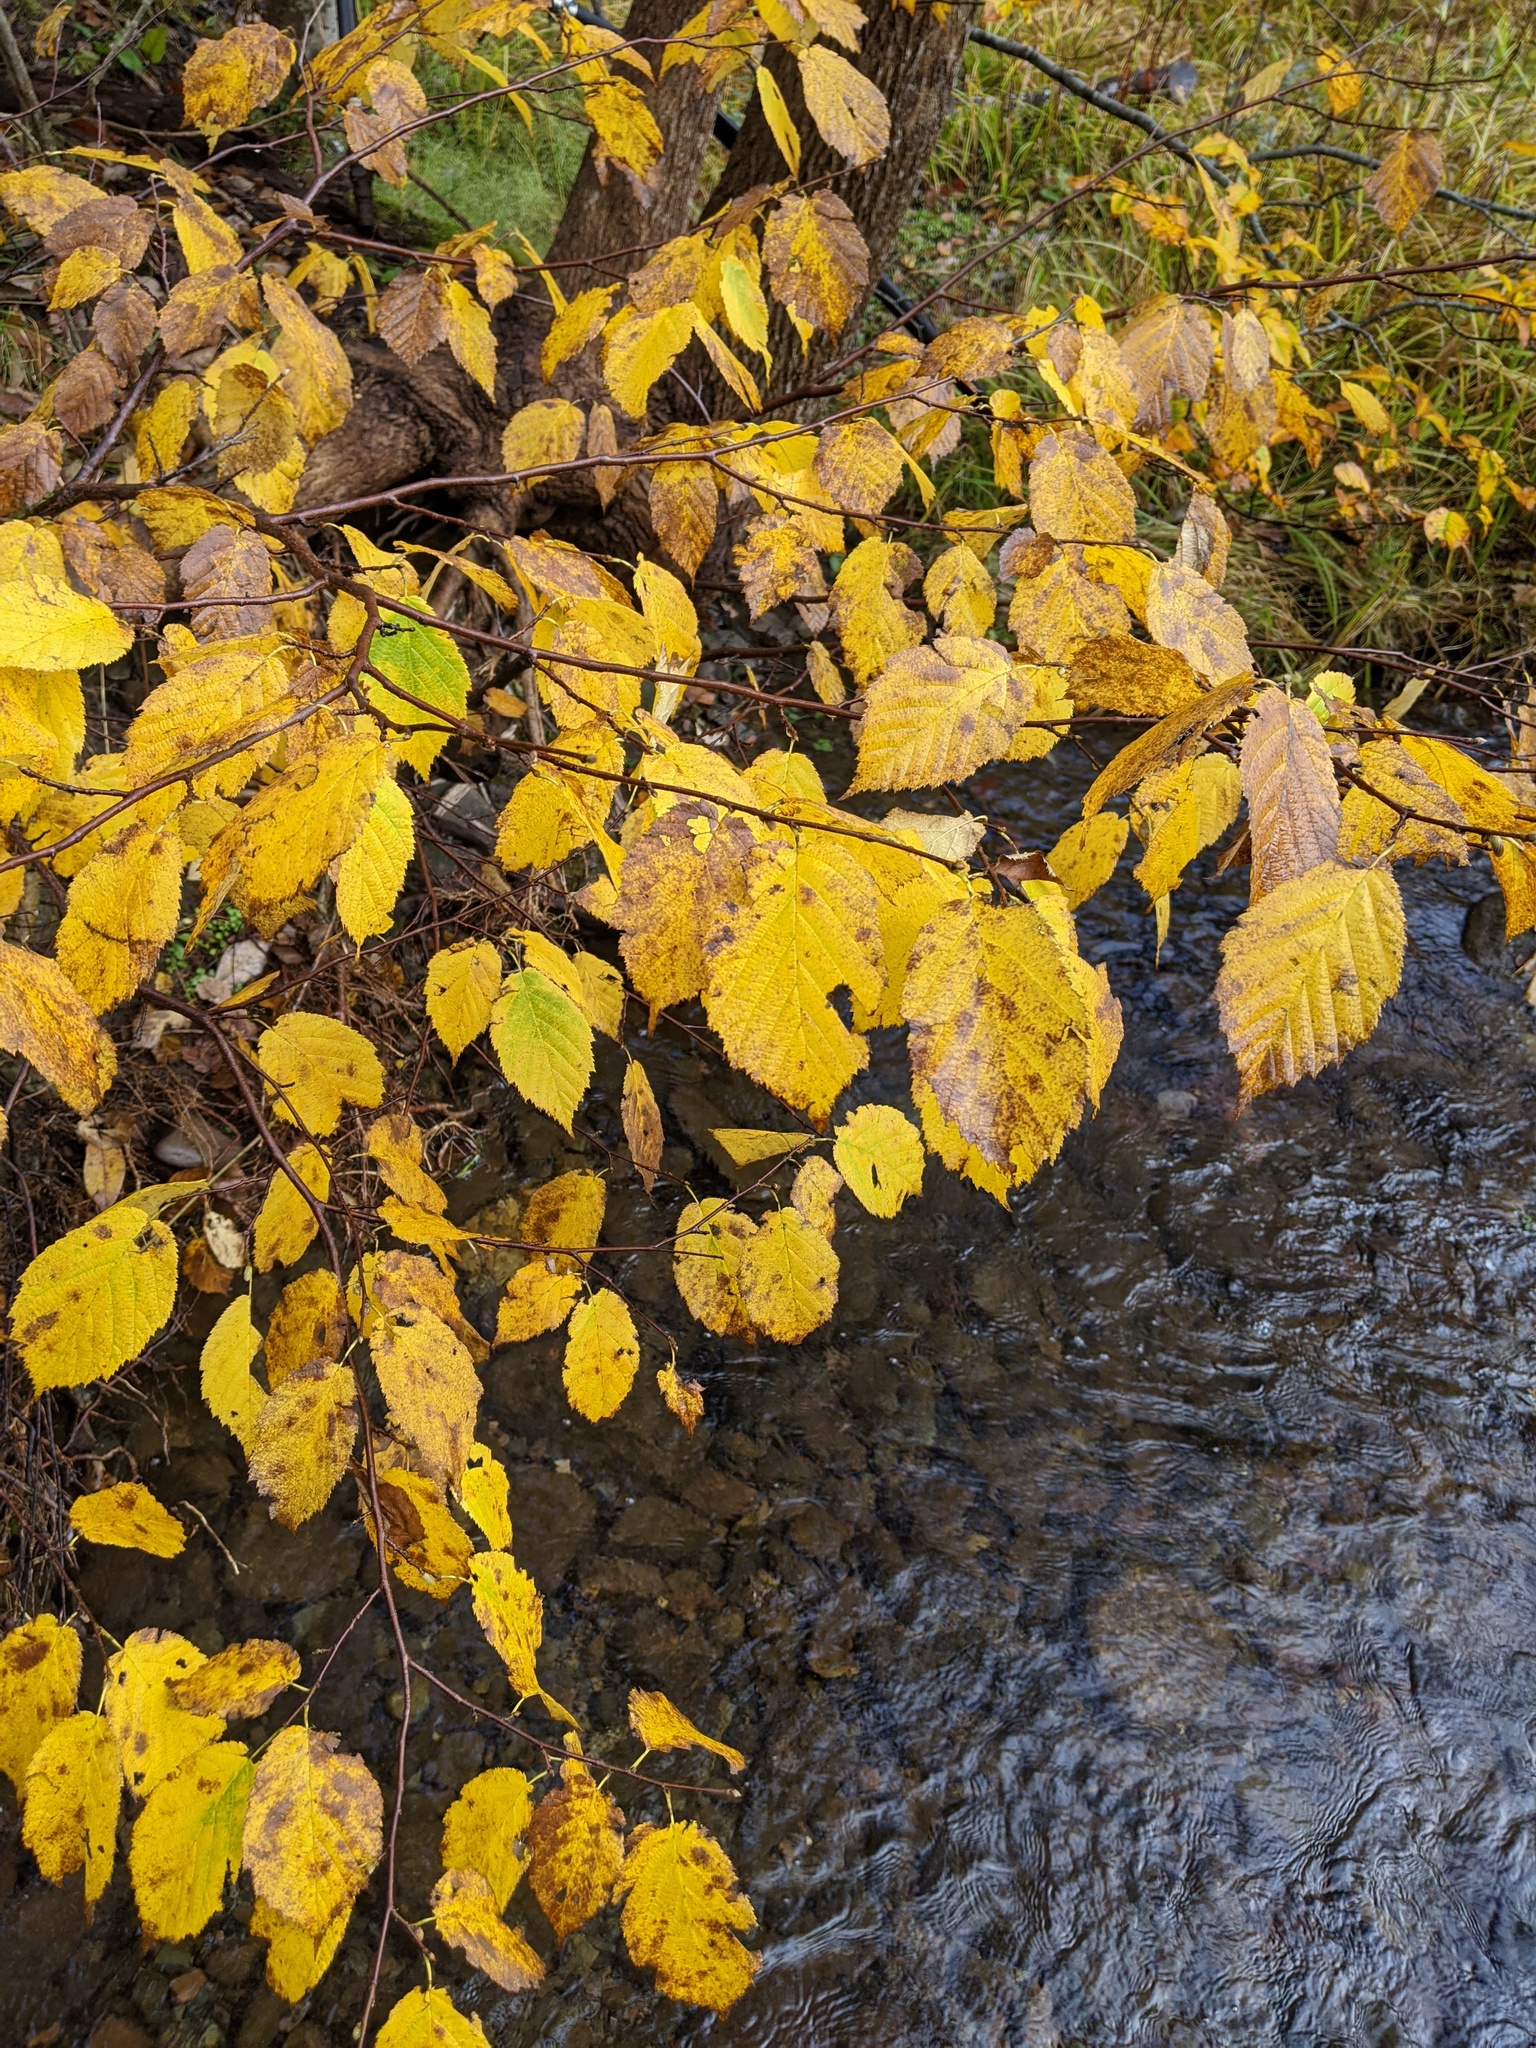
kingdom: Plantae
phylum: Tracheophyta
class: Magnoliopsida
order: Fagales
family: Betulaceae
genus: Betula
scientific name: Betula alleghaniensis
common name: Yellow birch
